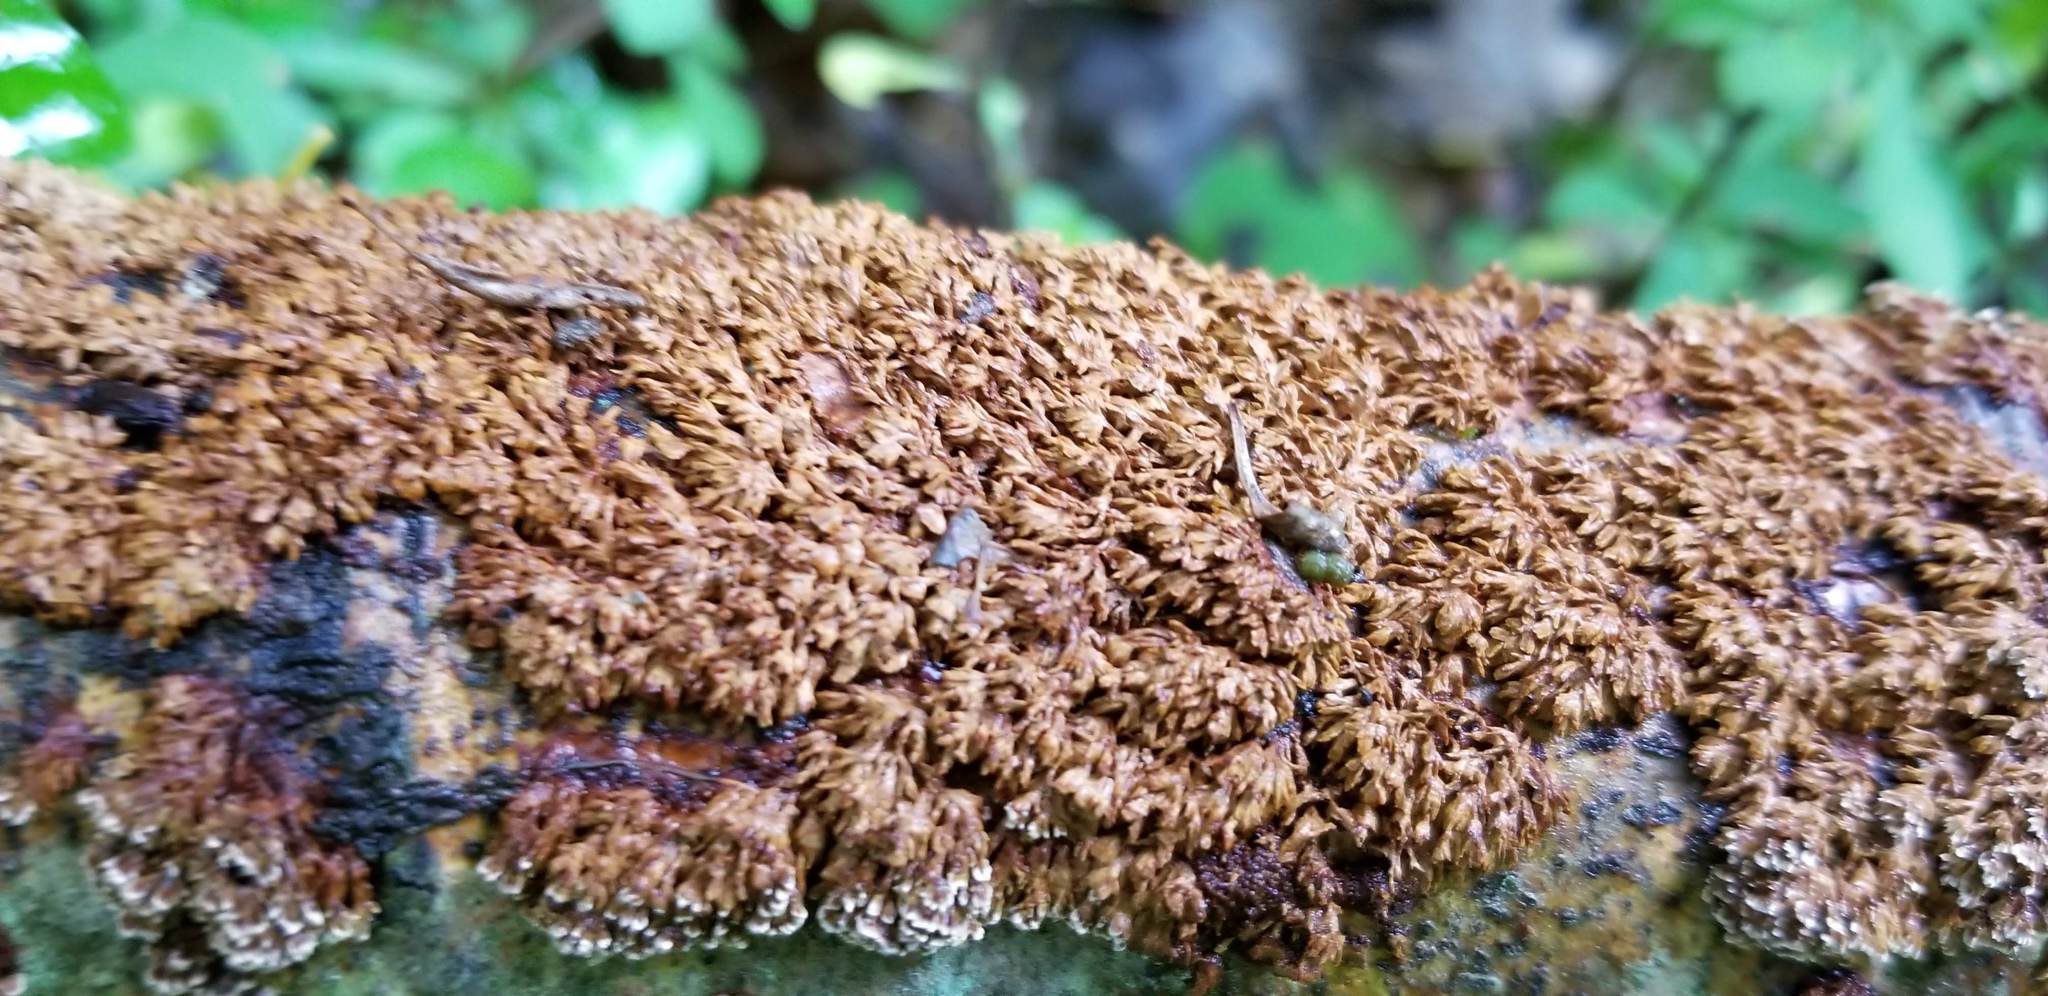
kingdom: Fungi
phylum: Basidiomycota
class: Agaricomycetes
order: Hymenochaetales
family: Hymenochaetaceae
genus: Hydnoporia
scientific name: Hydnoporia olivacea
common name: Brown-toothed crust fungus
